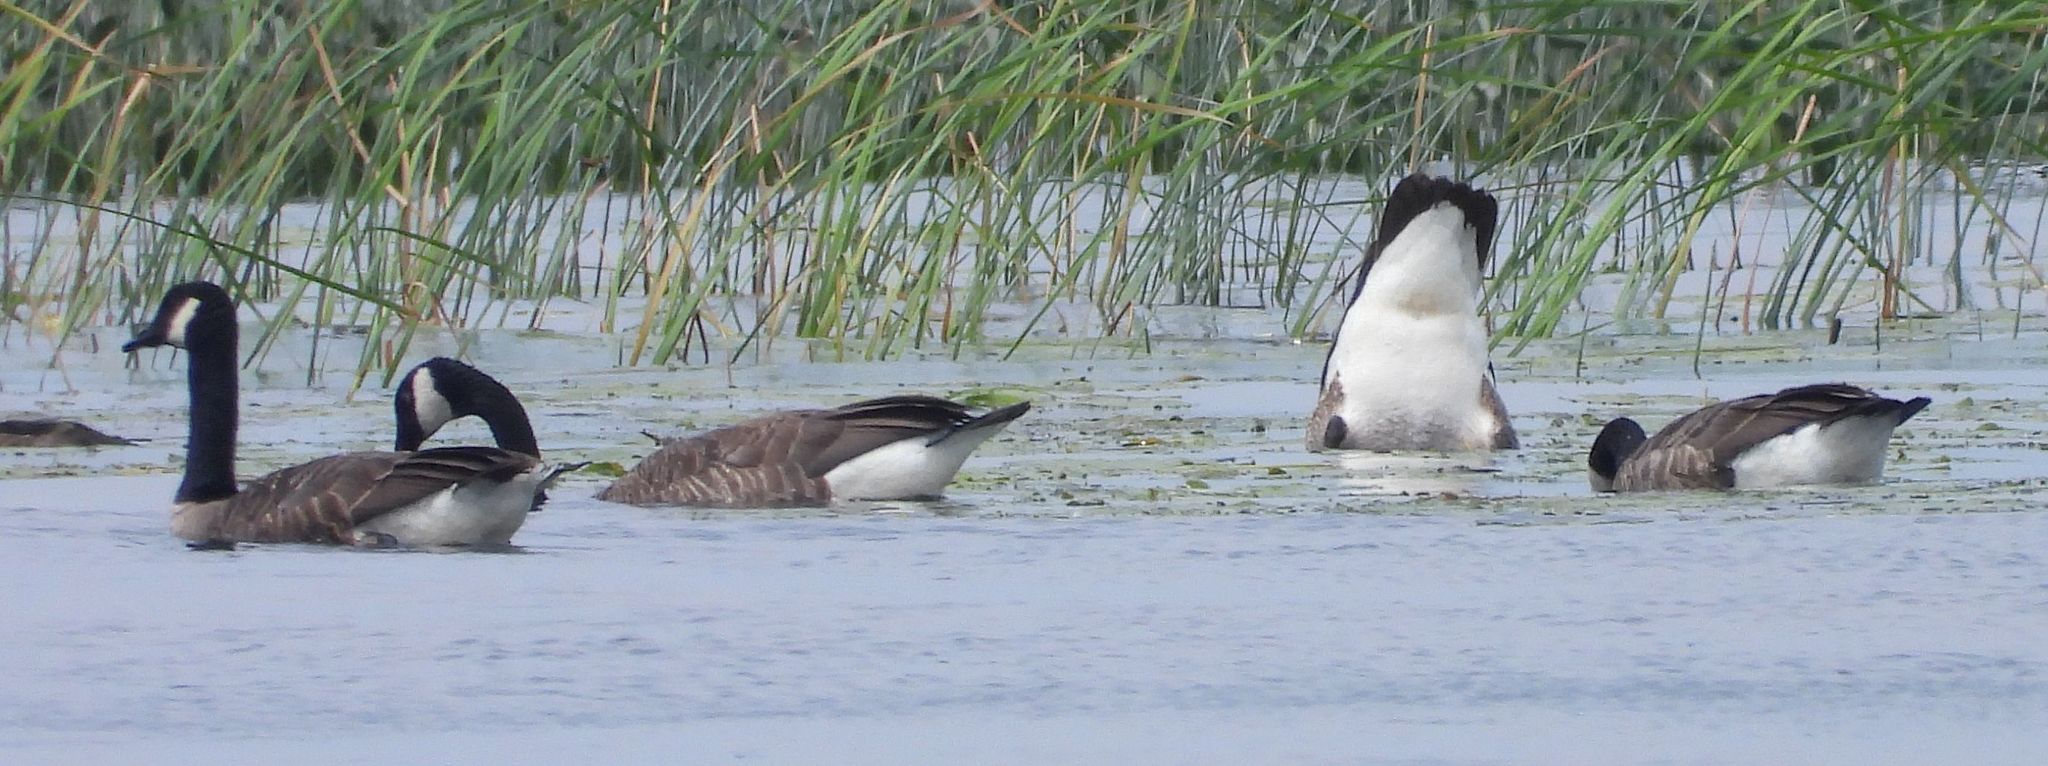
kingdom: Animalia
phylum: Chordata
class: Aves
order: Anseriformes
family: Anatidae
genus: Branta
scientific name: Branta canadensis
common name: Canada goose
